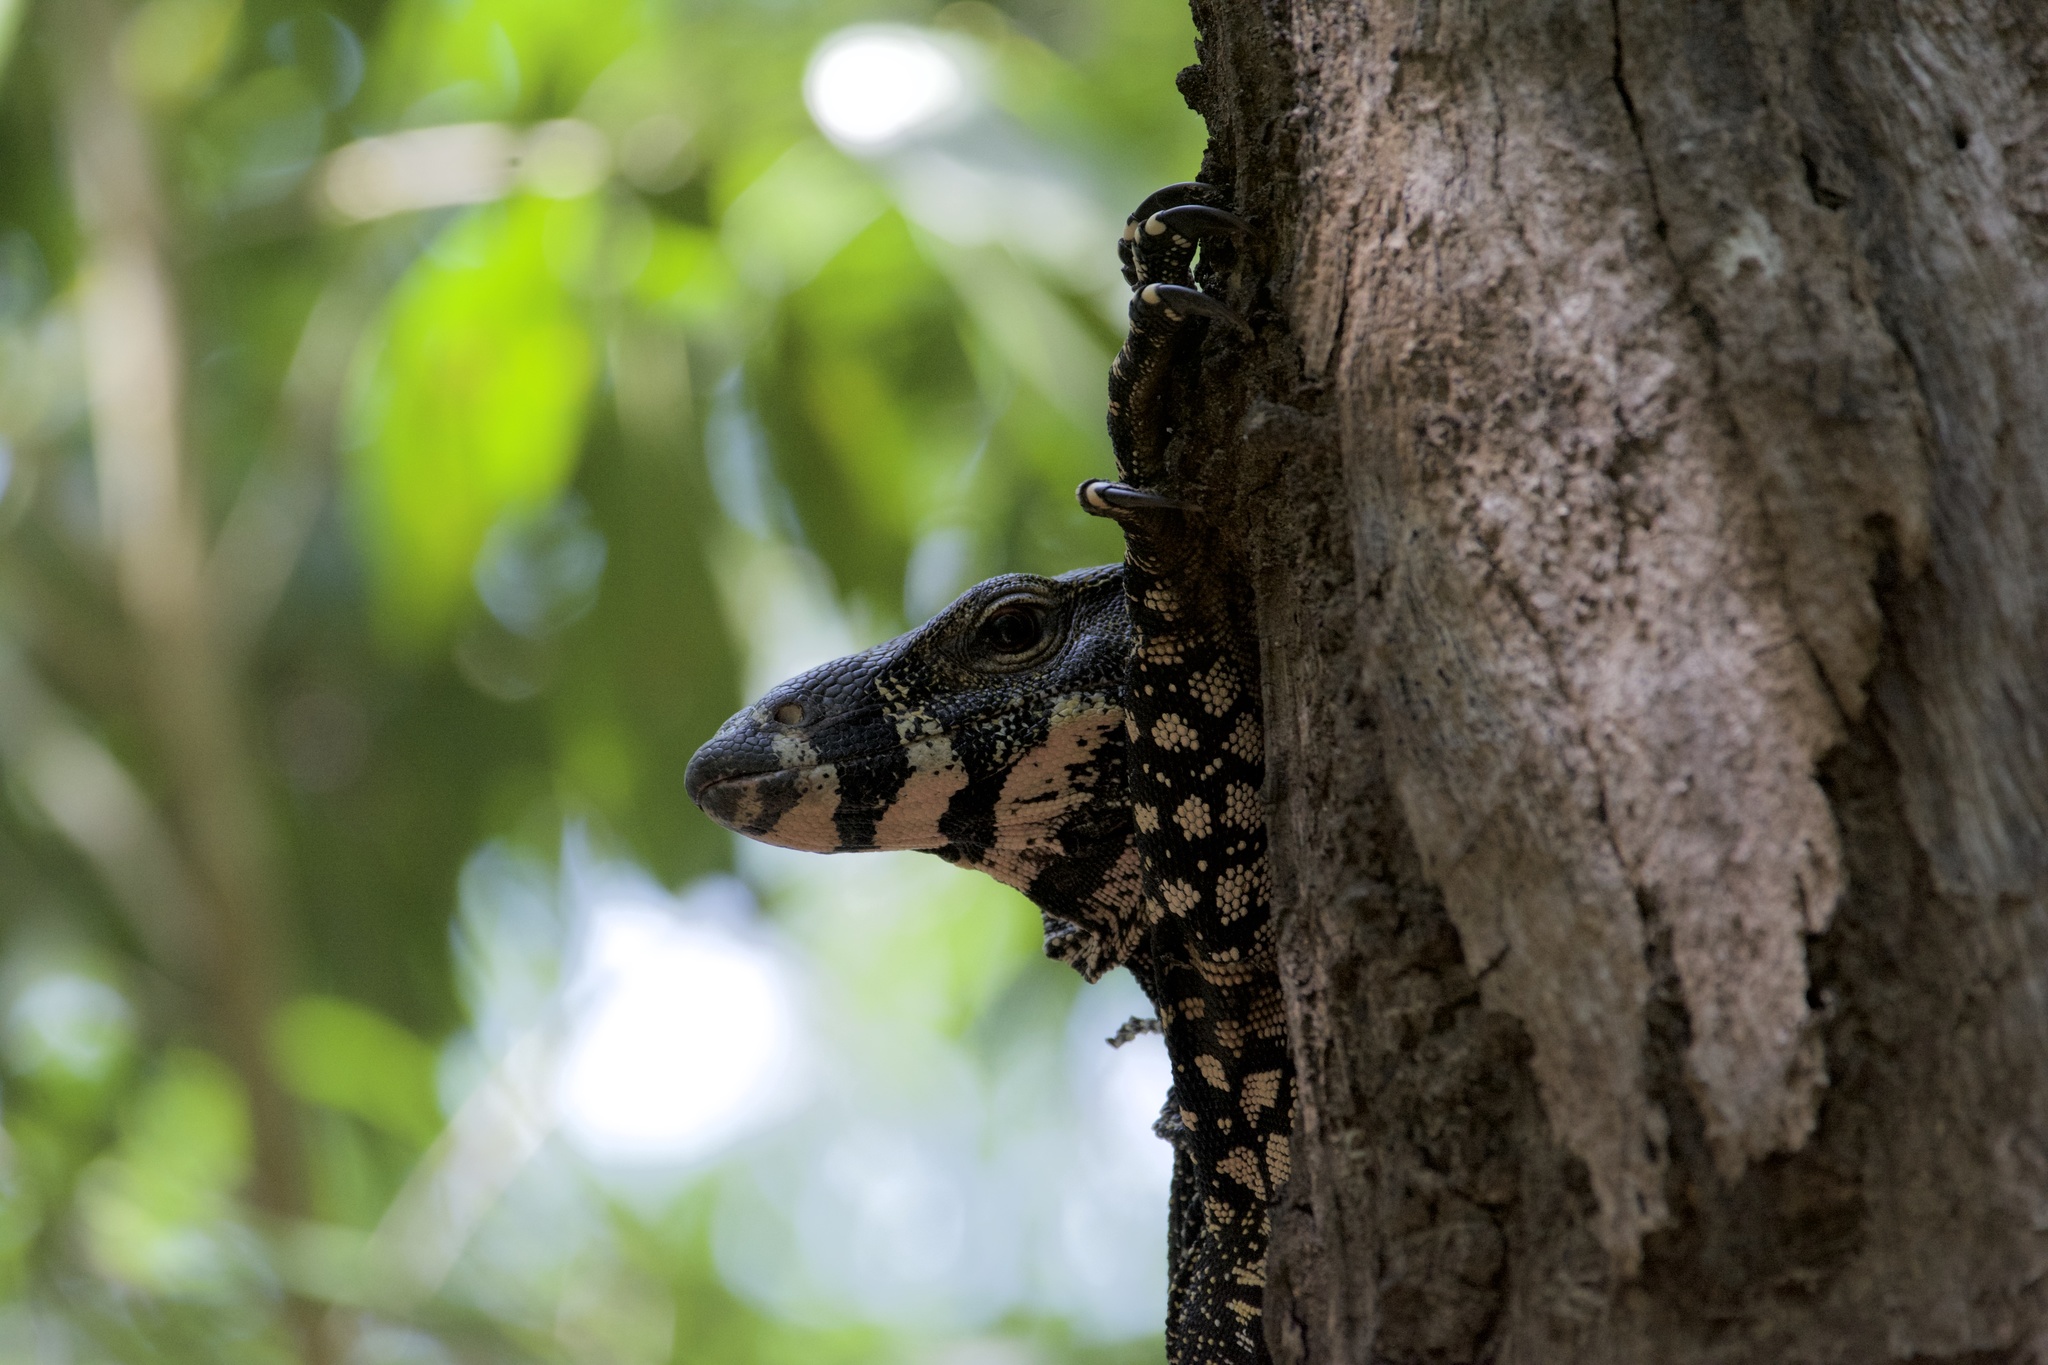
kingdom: Animalia
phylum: Chordata
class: Squamata
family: Varanidae
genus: Varanus
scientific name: Varanus varius
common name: Lace monitor
